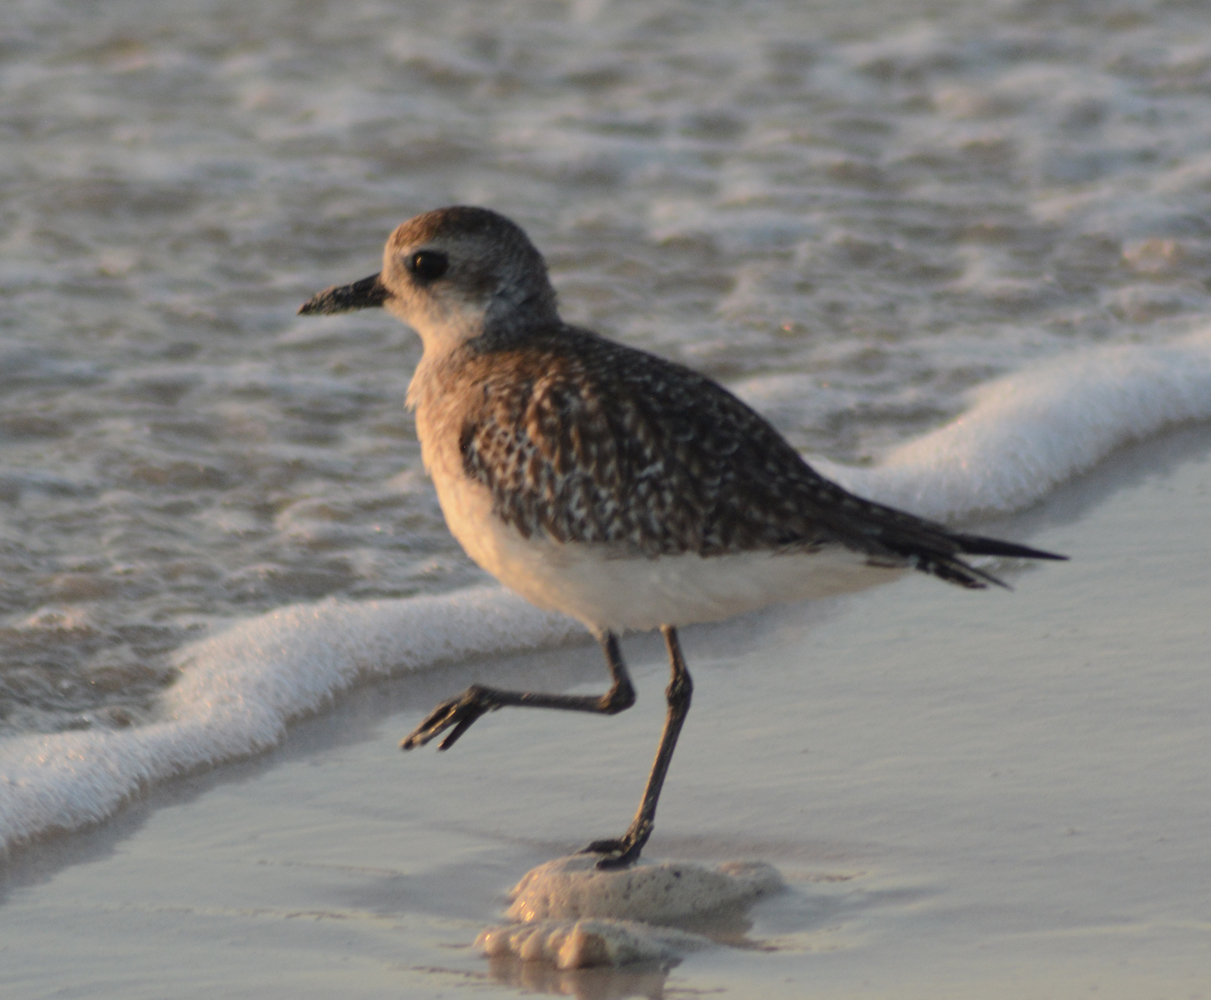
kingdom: Animalia
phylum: Chordata
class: Aves
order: Charadriiformes
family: Charadriidae
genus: Pluvialis
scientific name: Pluvialis squatarola
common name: Grey plover
